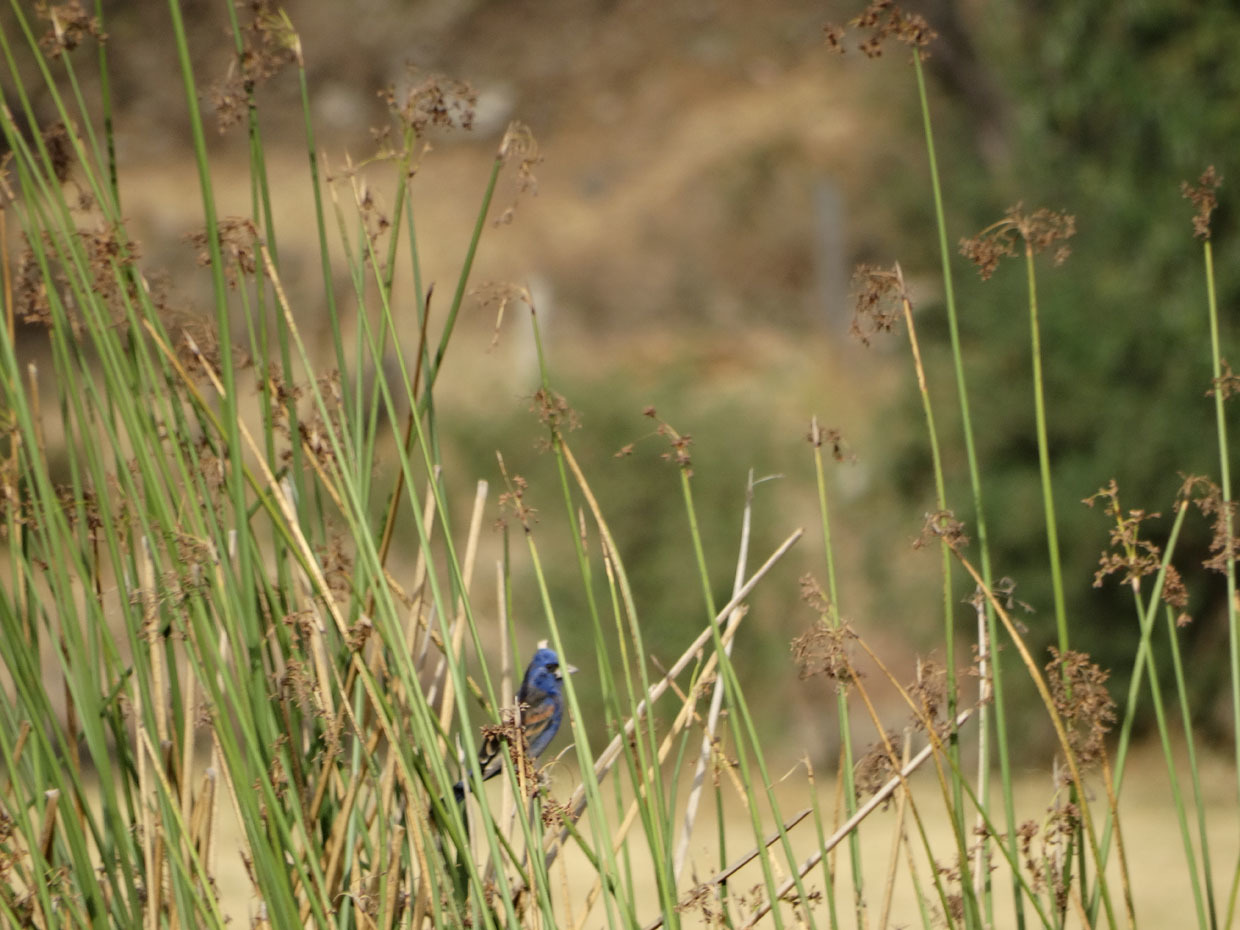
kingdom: Animalia
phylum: Chordata
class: Aves
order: Passeriformes
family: Cardinalidae
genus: Passerina
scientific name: Passerina caerulea
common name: Blue grosbeak
